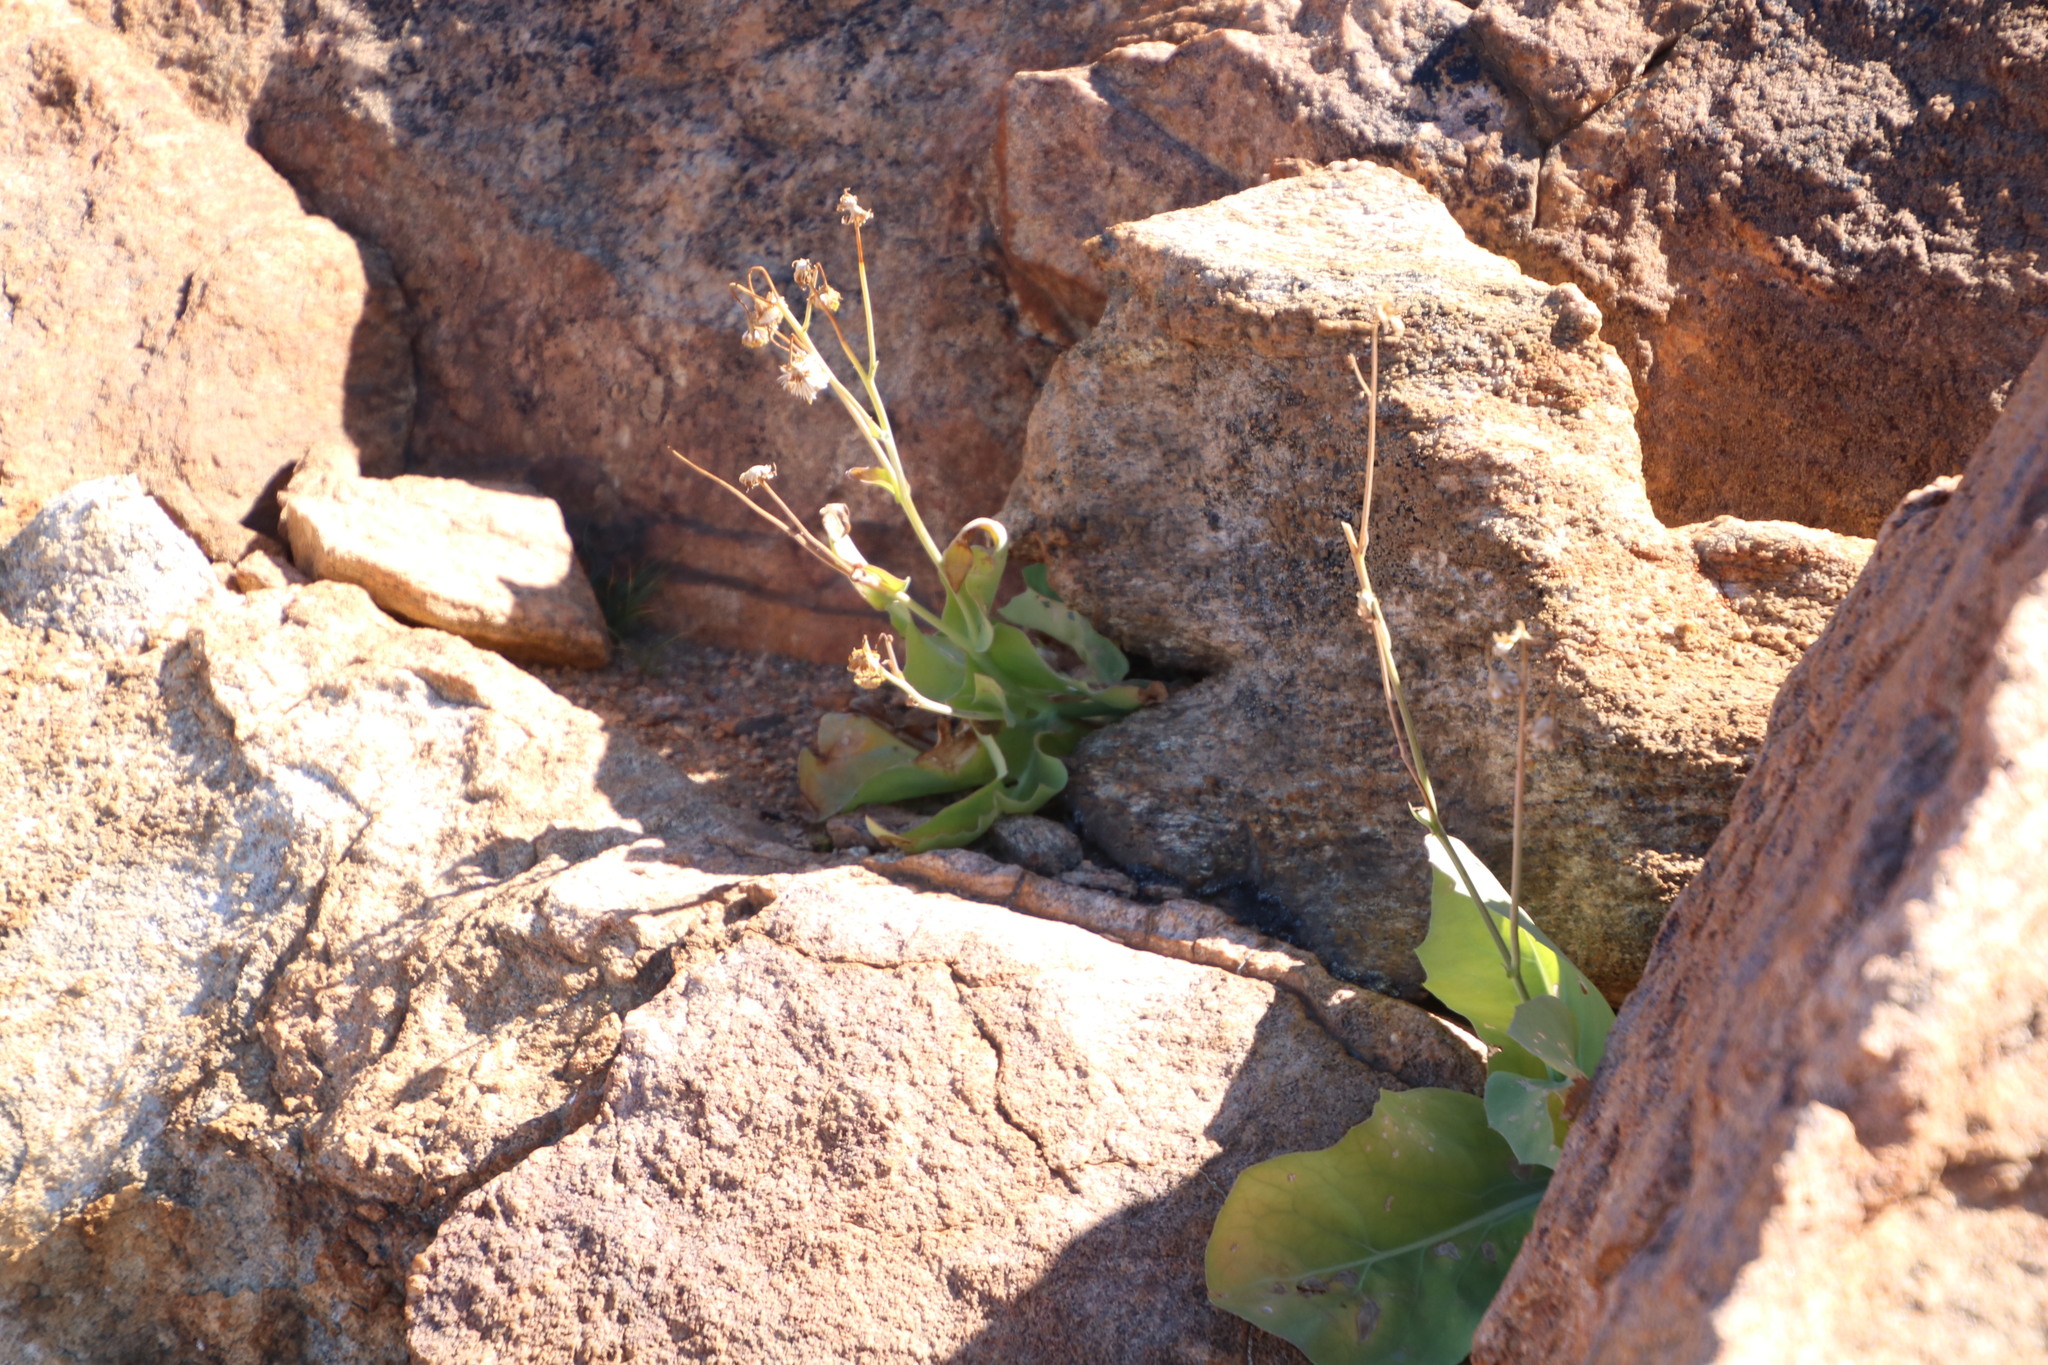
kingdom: Plantae
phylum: Tracheophyta
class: Magnoliopsida
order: Asterales
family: Asteraceae
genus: Othonna
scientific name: Othonna macrophylla
